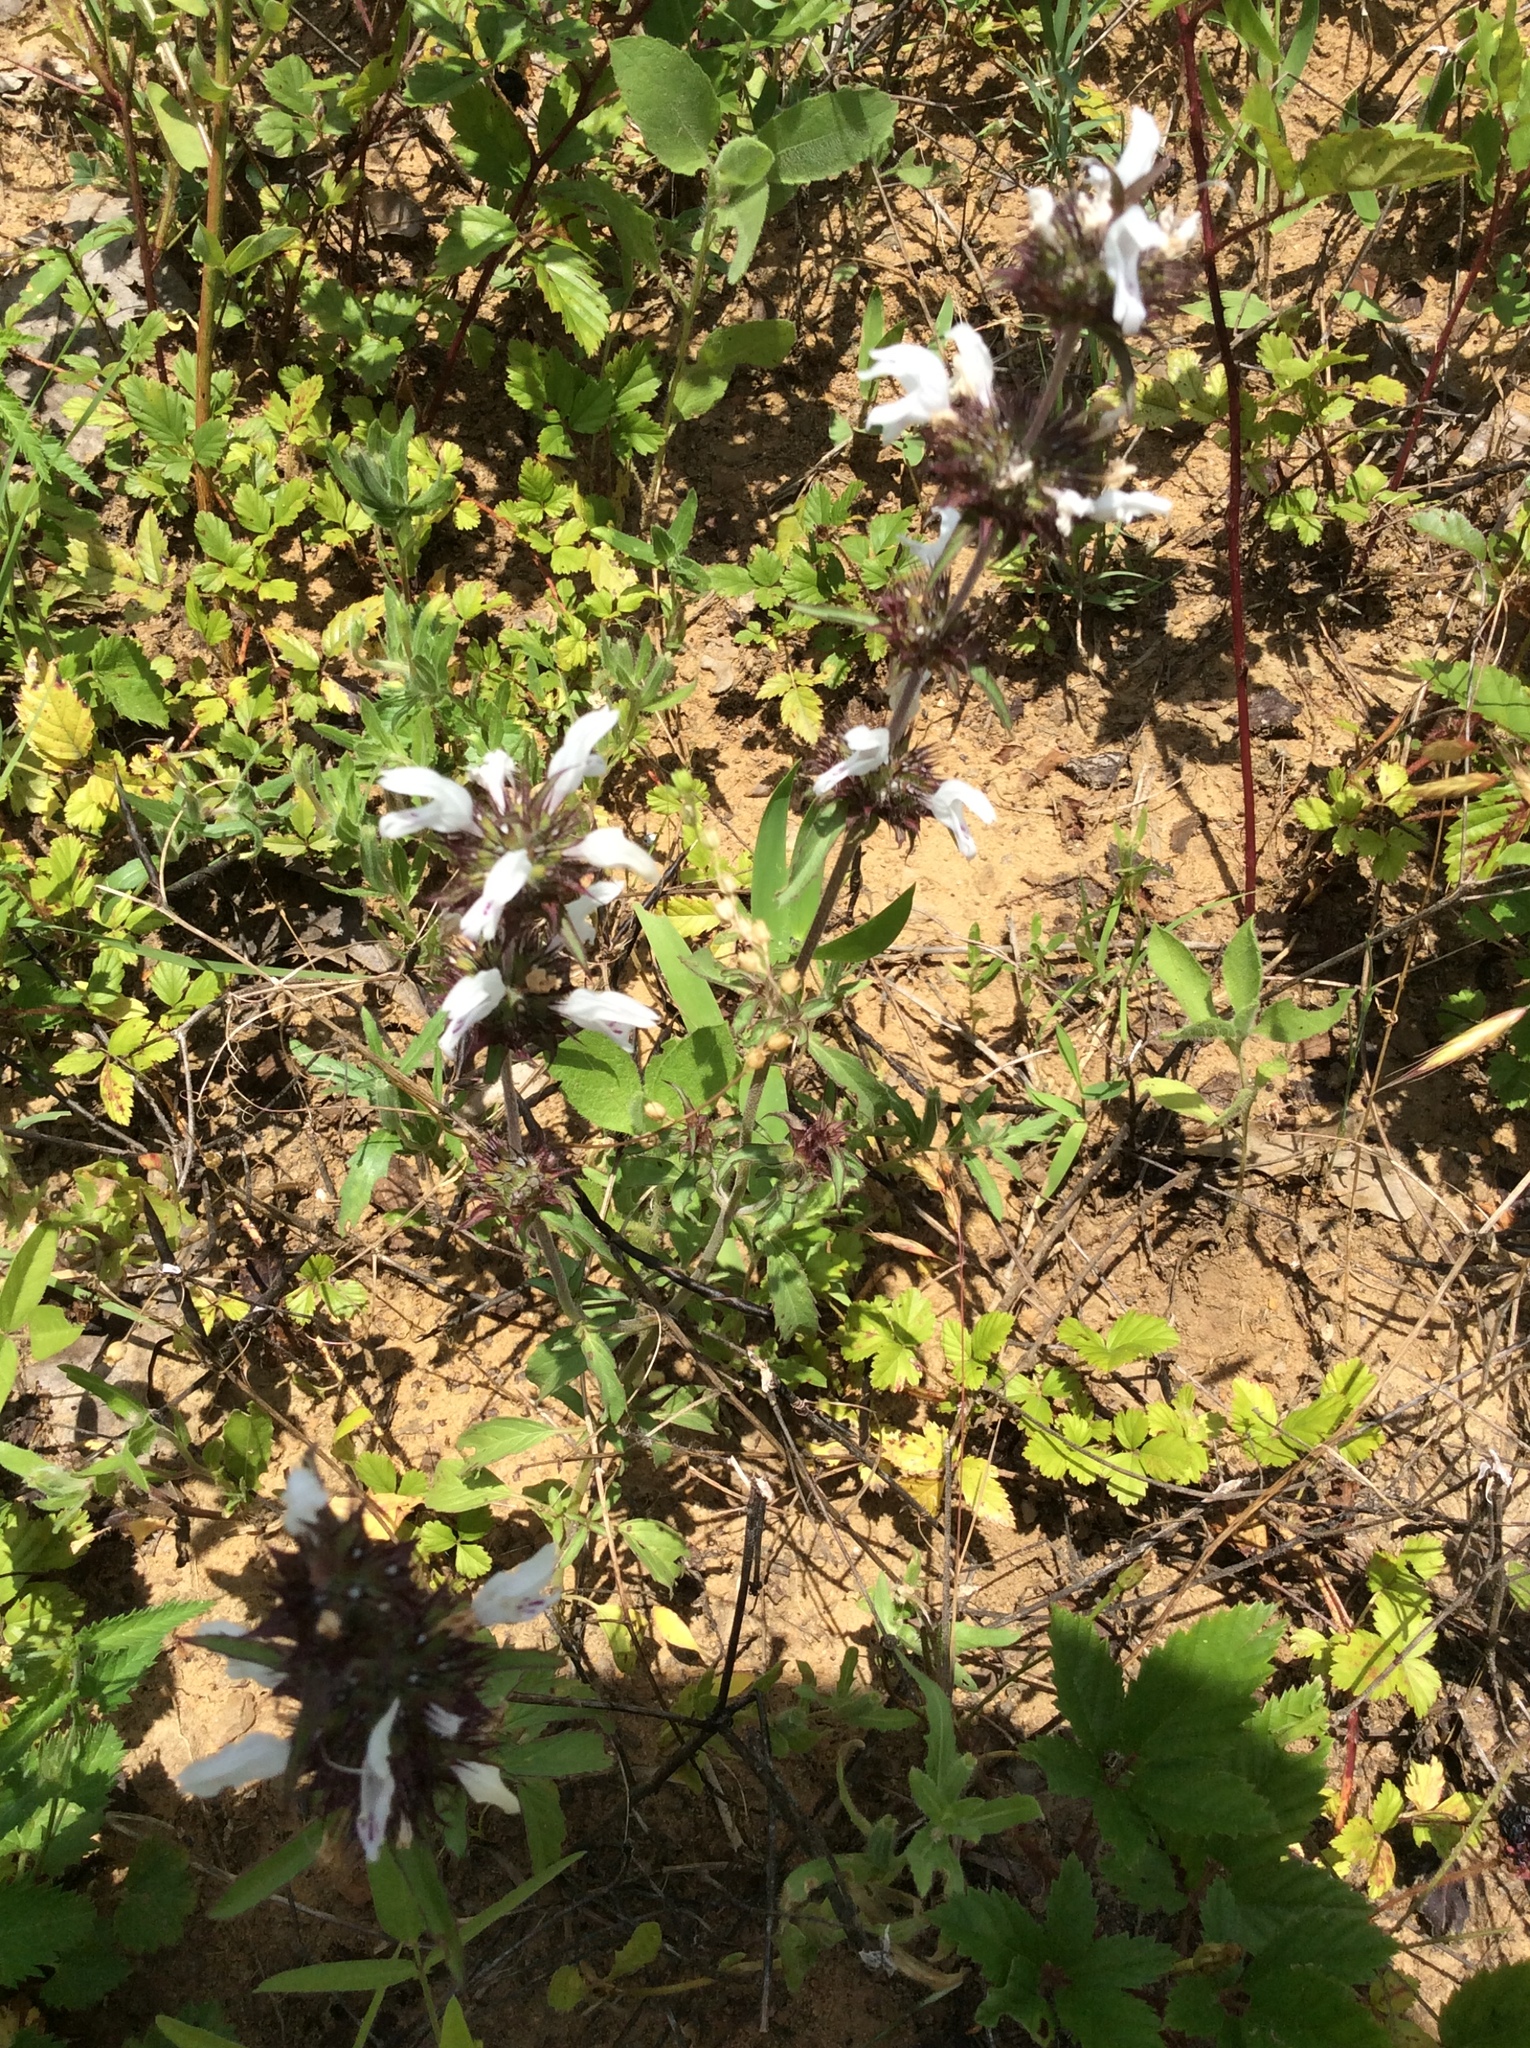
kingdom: Plantae
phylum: Tracheophyta
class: Magnoliopsida
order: Lamiales
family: Lamiaceae
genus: Monarda
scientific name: Monarda clinopodioides
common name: Basil beebalm
